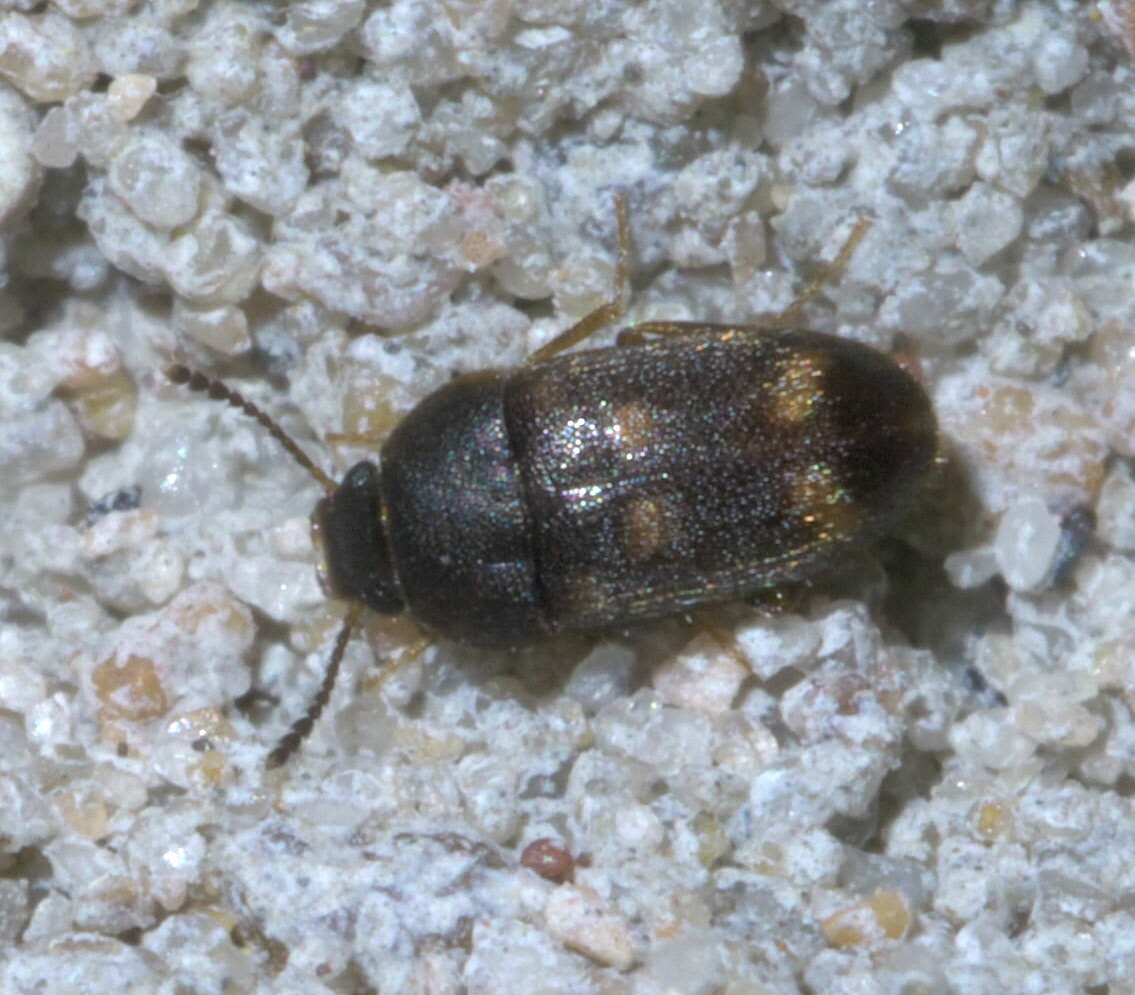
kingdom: Animalia
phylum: Arthropoda
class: Insecta
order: Coleoptera
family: Mycetophagidae
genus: Litargus
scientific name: Litargus sexpunctatus
